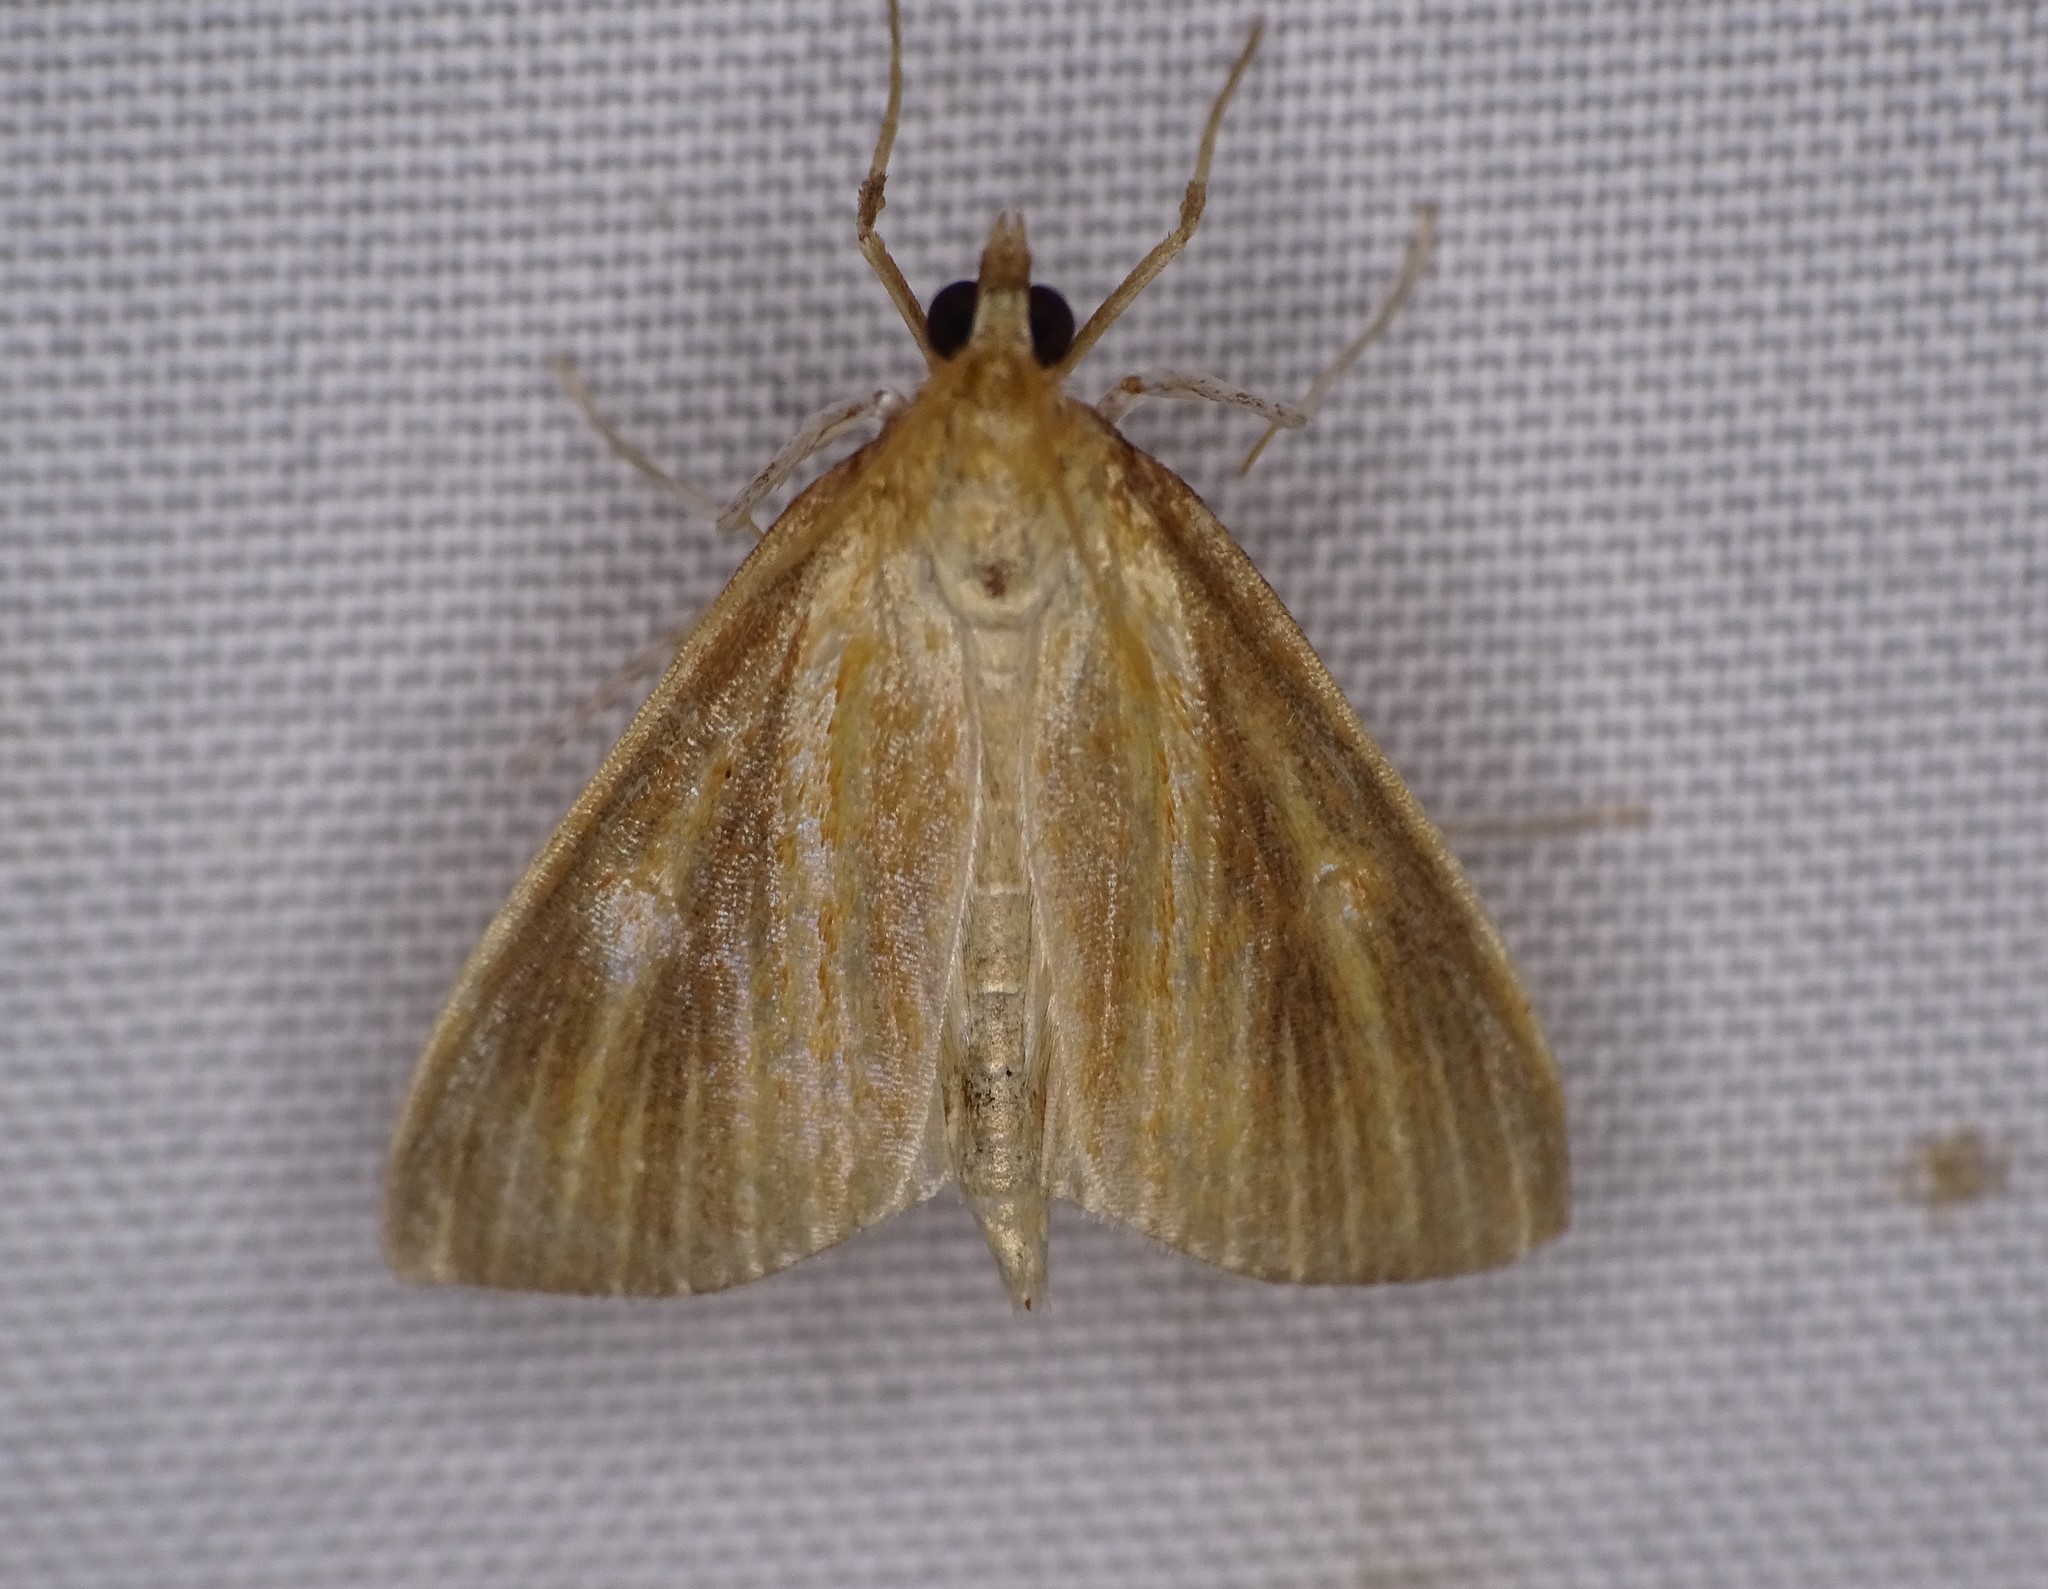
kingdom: Animalia
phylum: Arthropoda
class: Insecta
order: Lepidoptera
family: Crambidae
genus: Nascia
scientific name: Nascia acutellus
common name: Streaked orange moth
